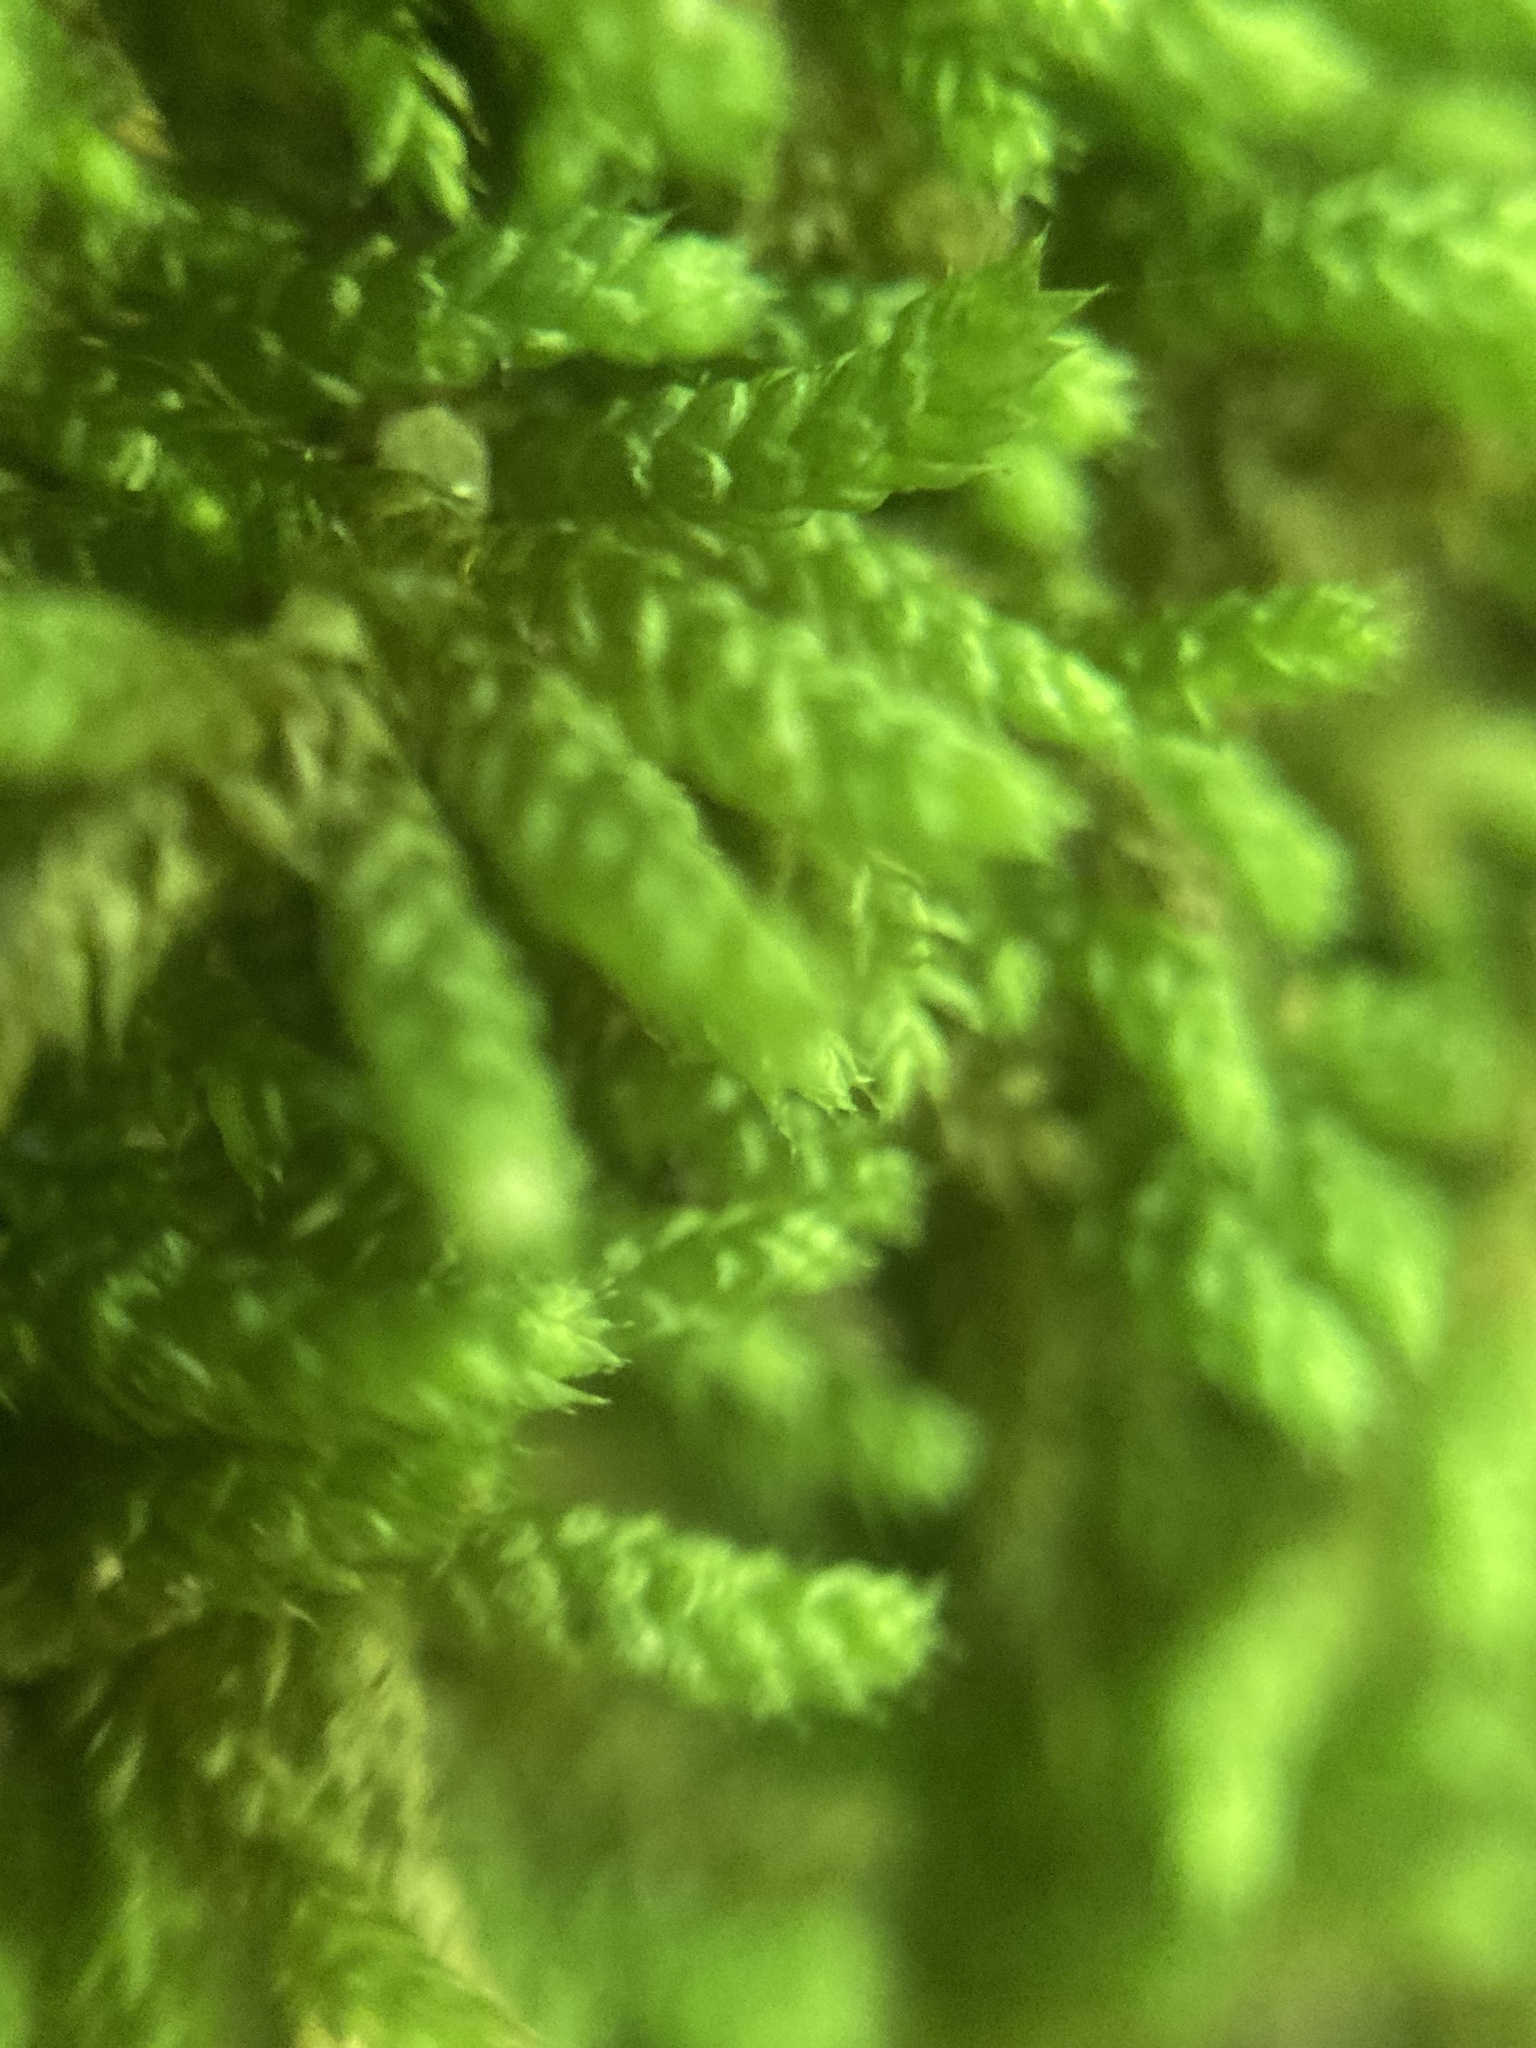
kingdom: Plantae
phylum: Bryophyta
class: Bryopsida
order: Hypnales
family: Brachytheciaceae
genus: Bryoandersonia
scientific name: Bryoandersonia illecebra
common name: Spoon-leaved moss
